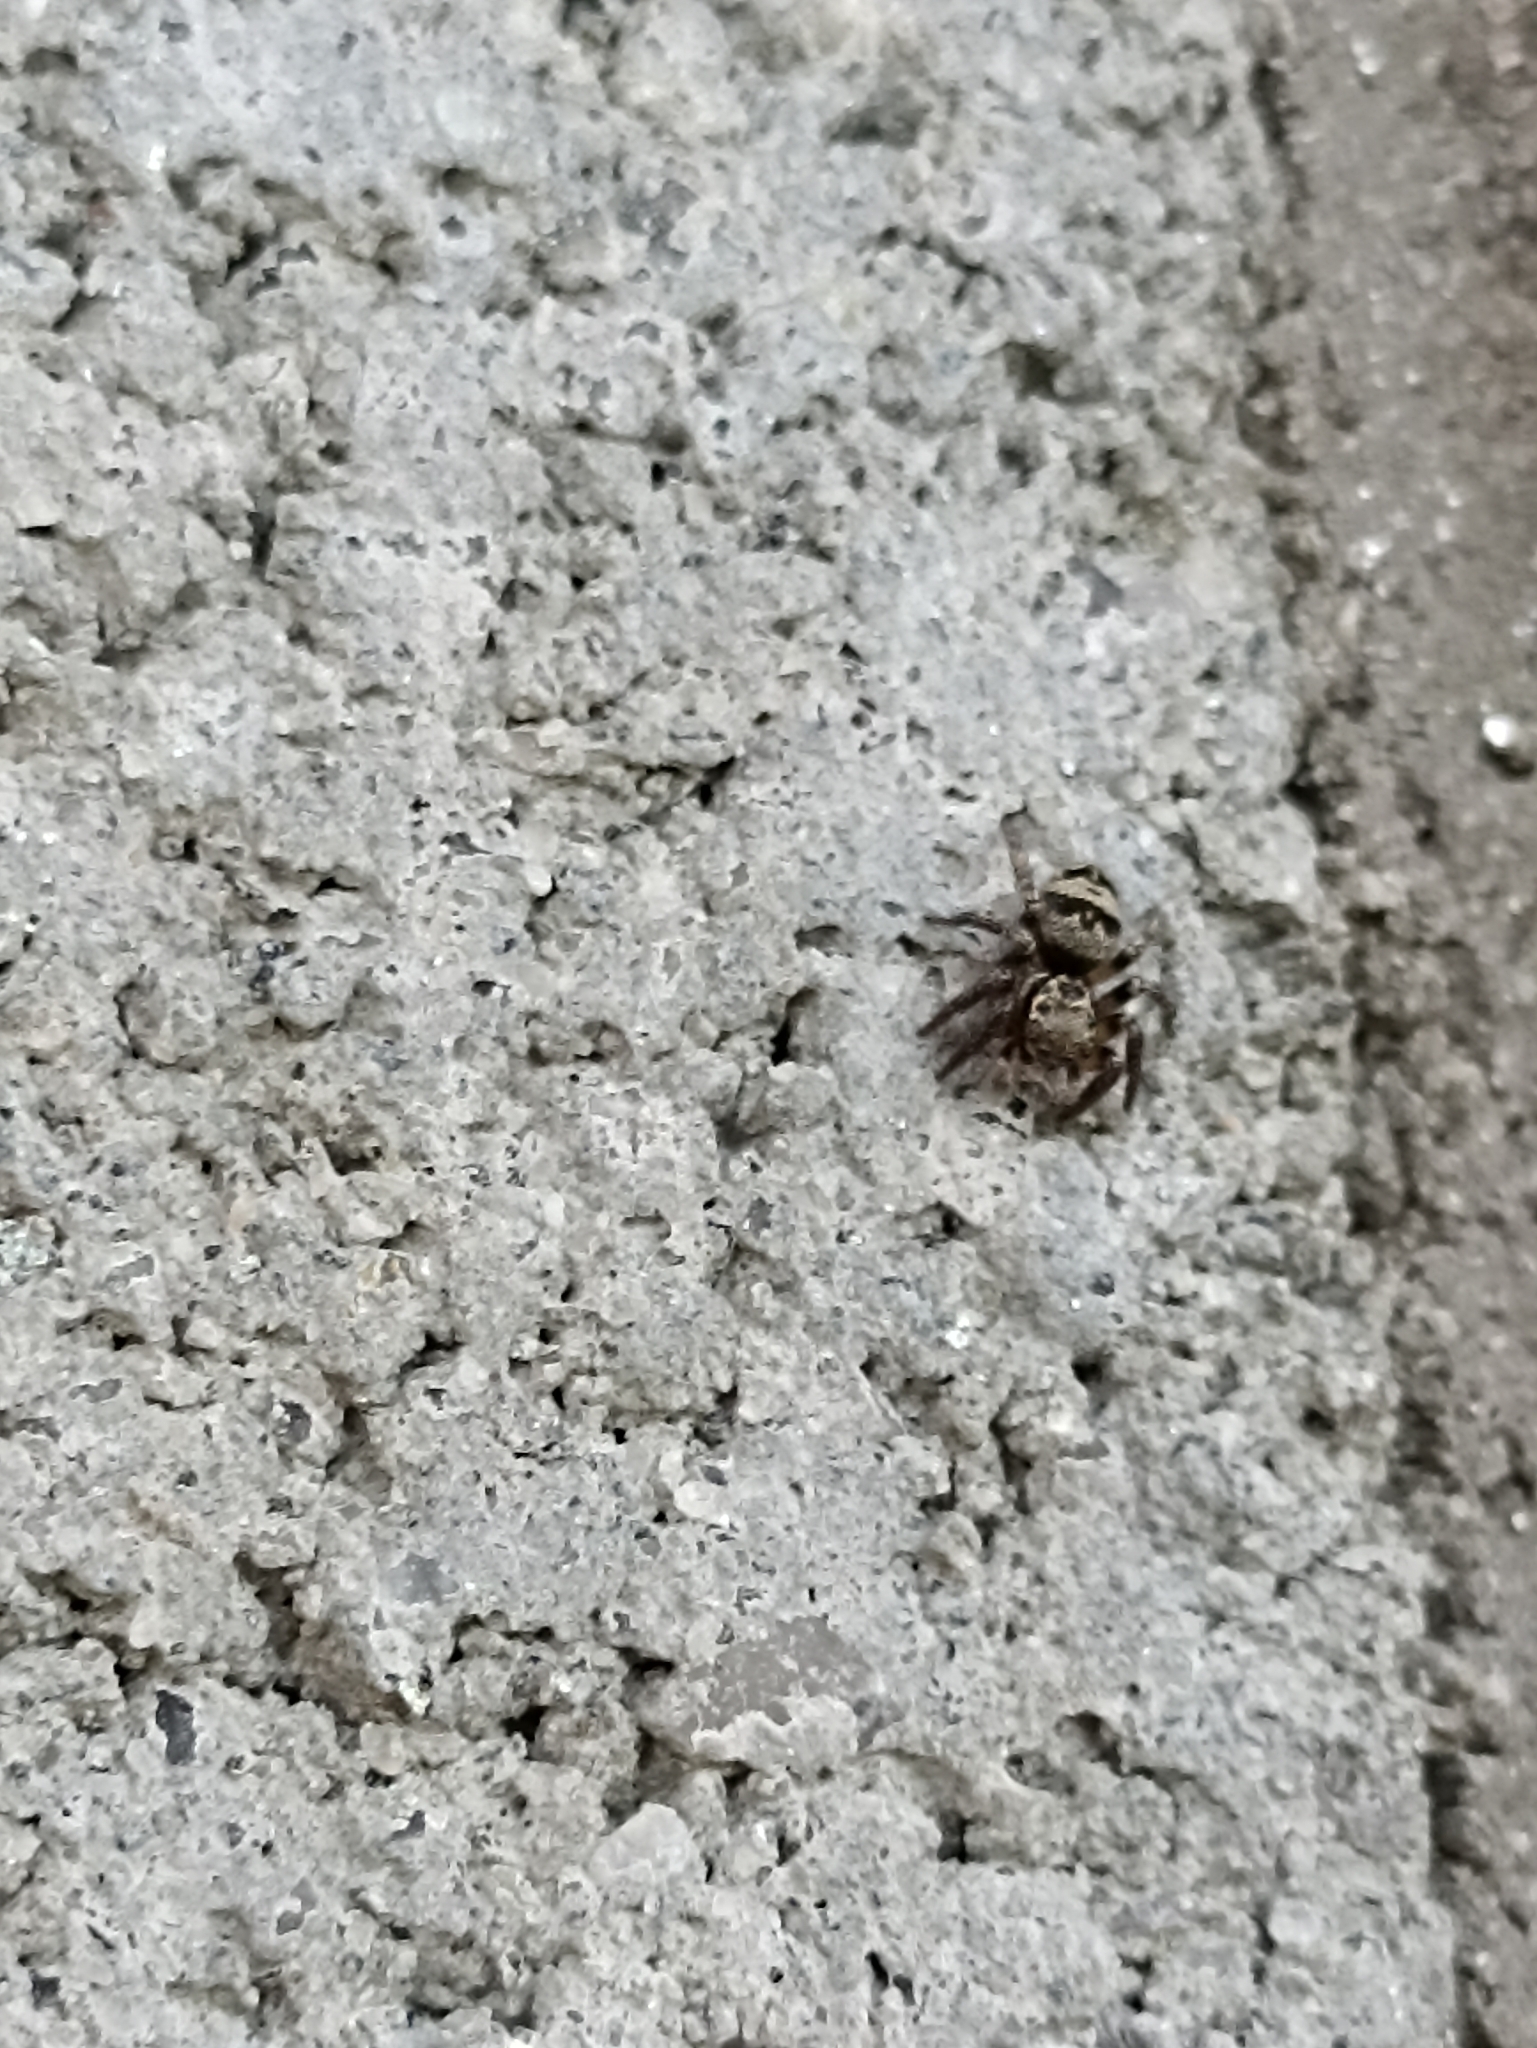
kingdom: Animalia
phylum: Arthropoda
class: Arachnida
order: Araneae
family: Salticidae
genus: Corythalia
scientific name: Corythalia conferta
